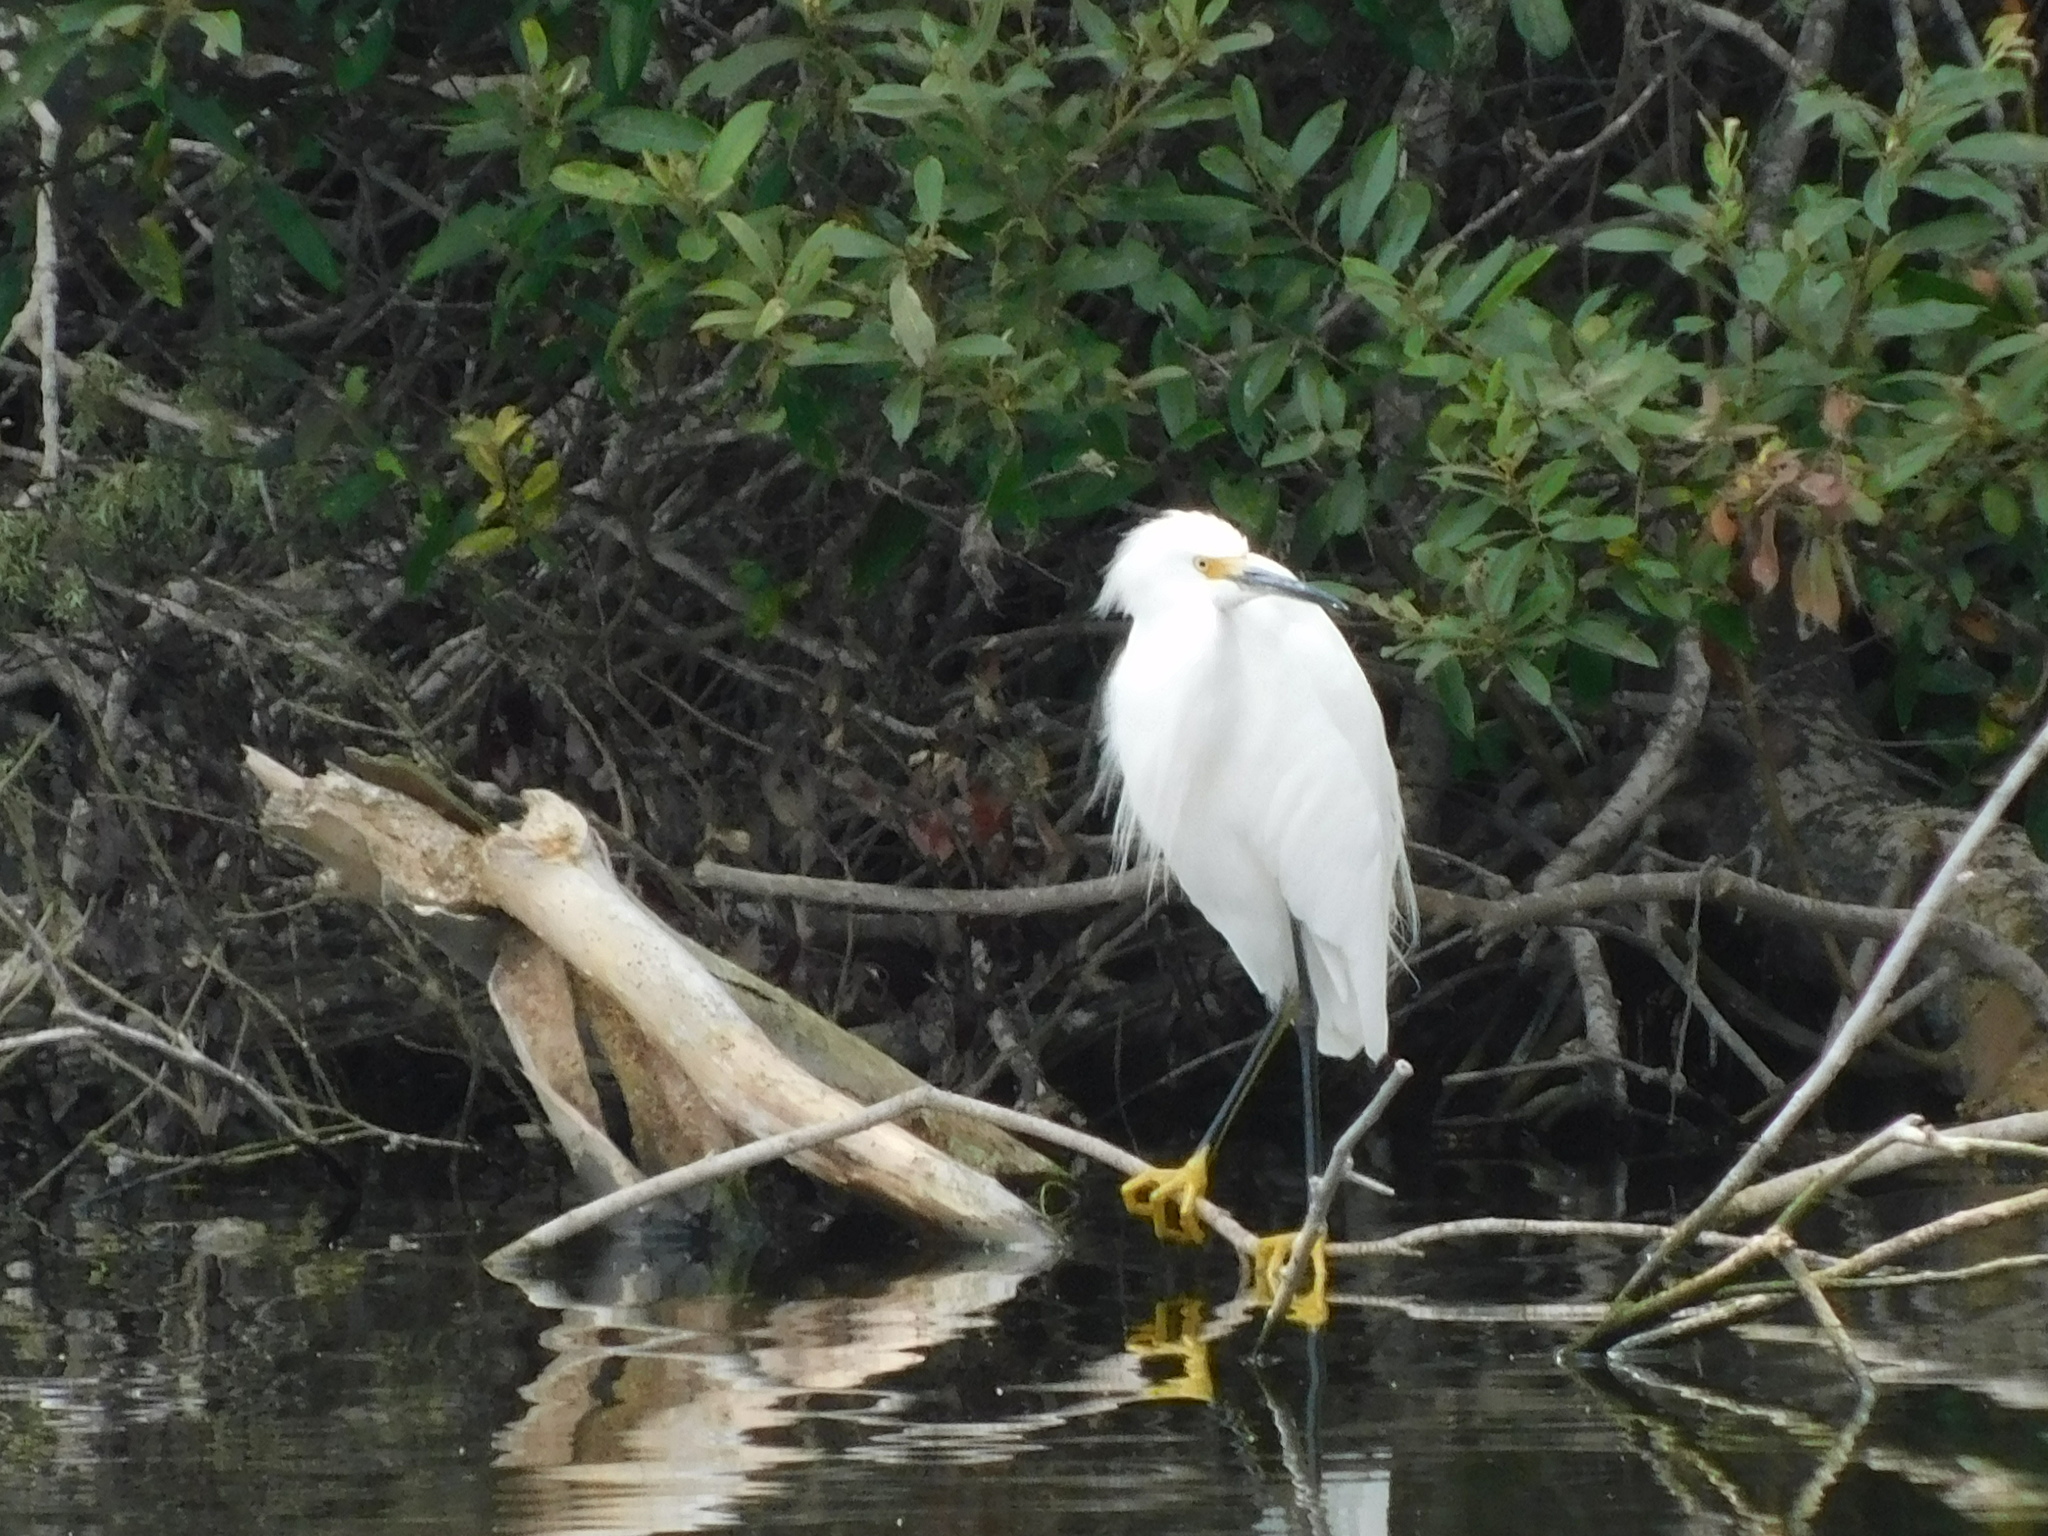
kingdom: Animalia
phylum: Chordata
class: Aves
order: Pelecaniformes
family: Ardeidae
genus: Egretta
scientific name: Egretta thula
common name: Snowy egret
